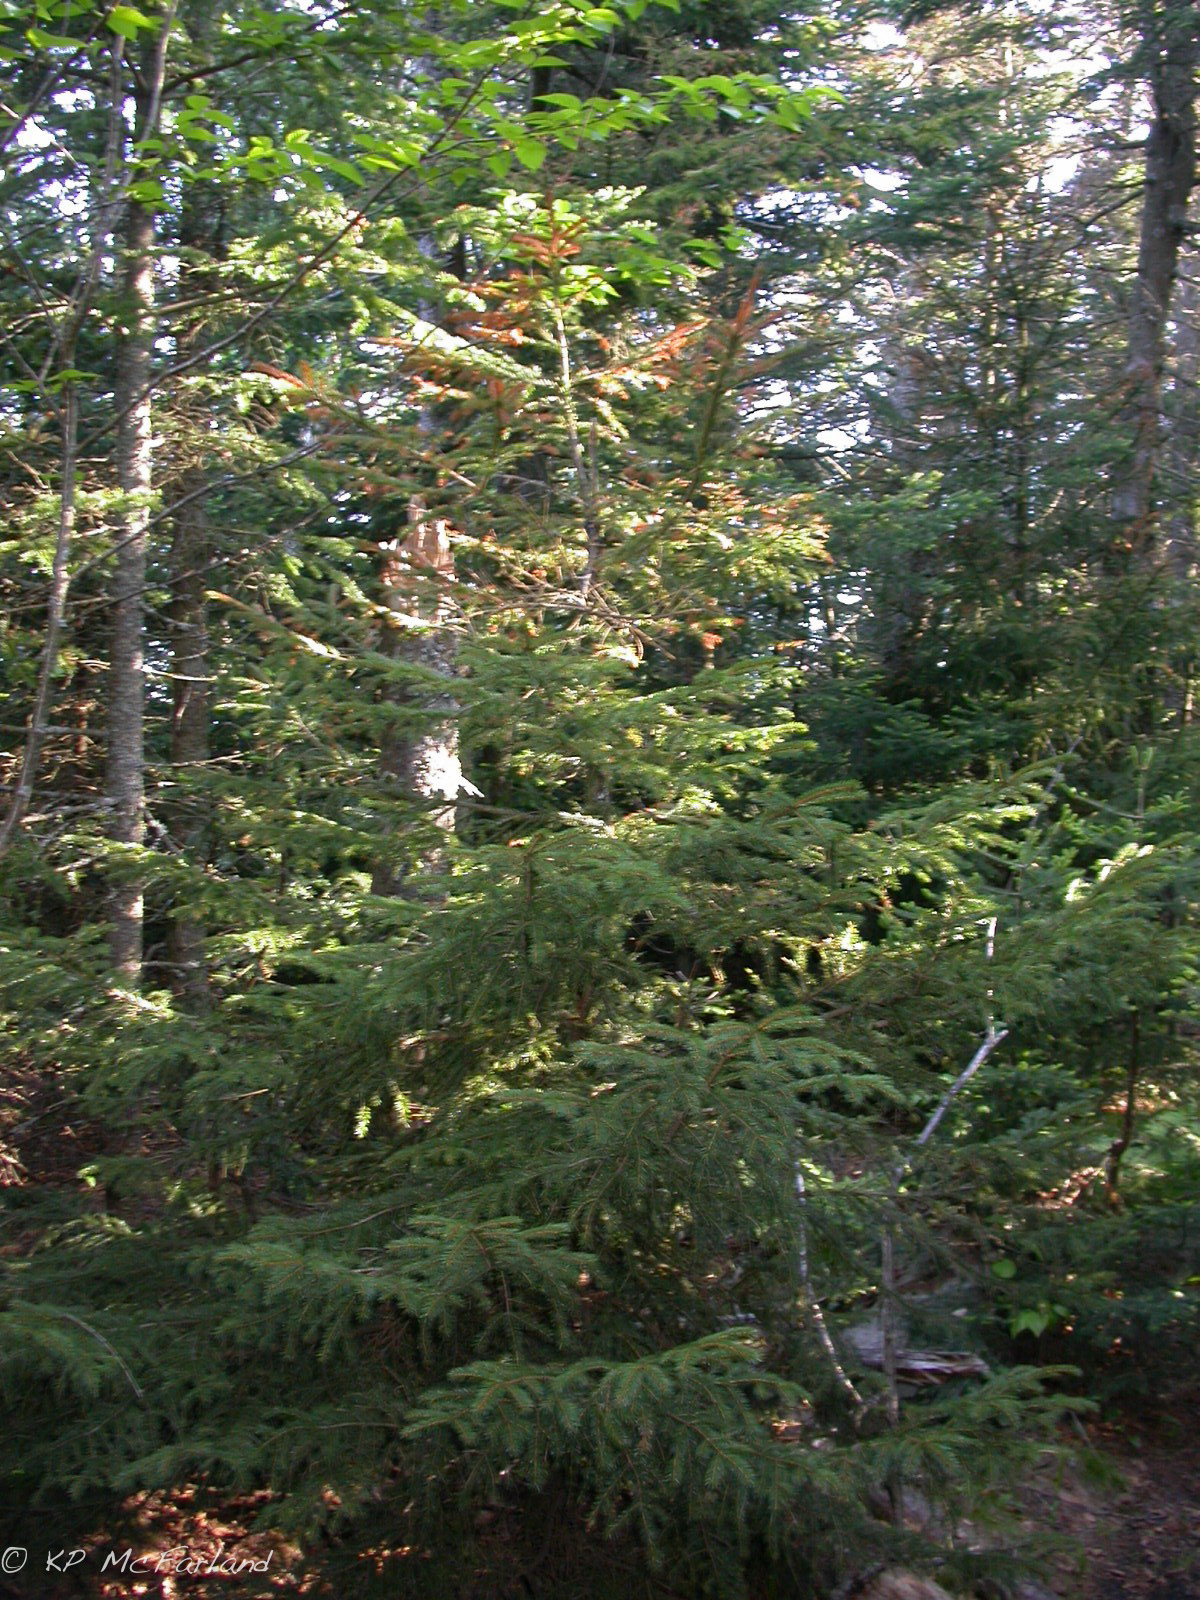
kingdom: Plantae
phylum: Tracheophyta
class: Pinopsida
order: Pinales
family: Pinaceae
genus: Picea
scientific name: Picea rubens
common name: Red spruce
